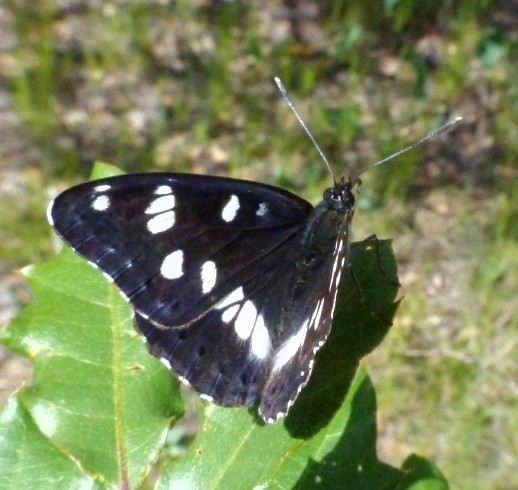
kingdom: Animalia
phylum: Arthropoda
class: Insecta
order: Lepidoptera
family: Nymphalidae
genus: Limenitis
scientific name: Limenitis reducta
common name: Southern white admiral
